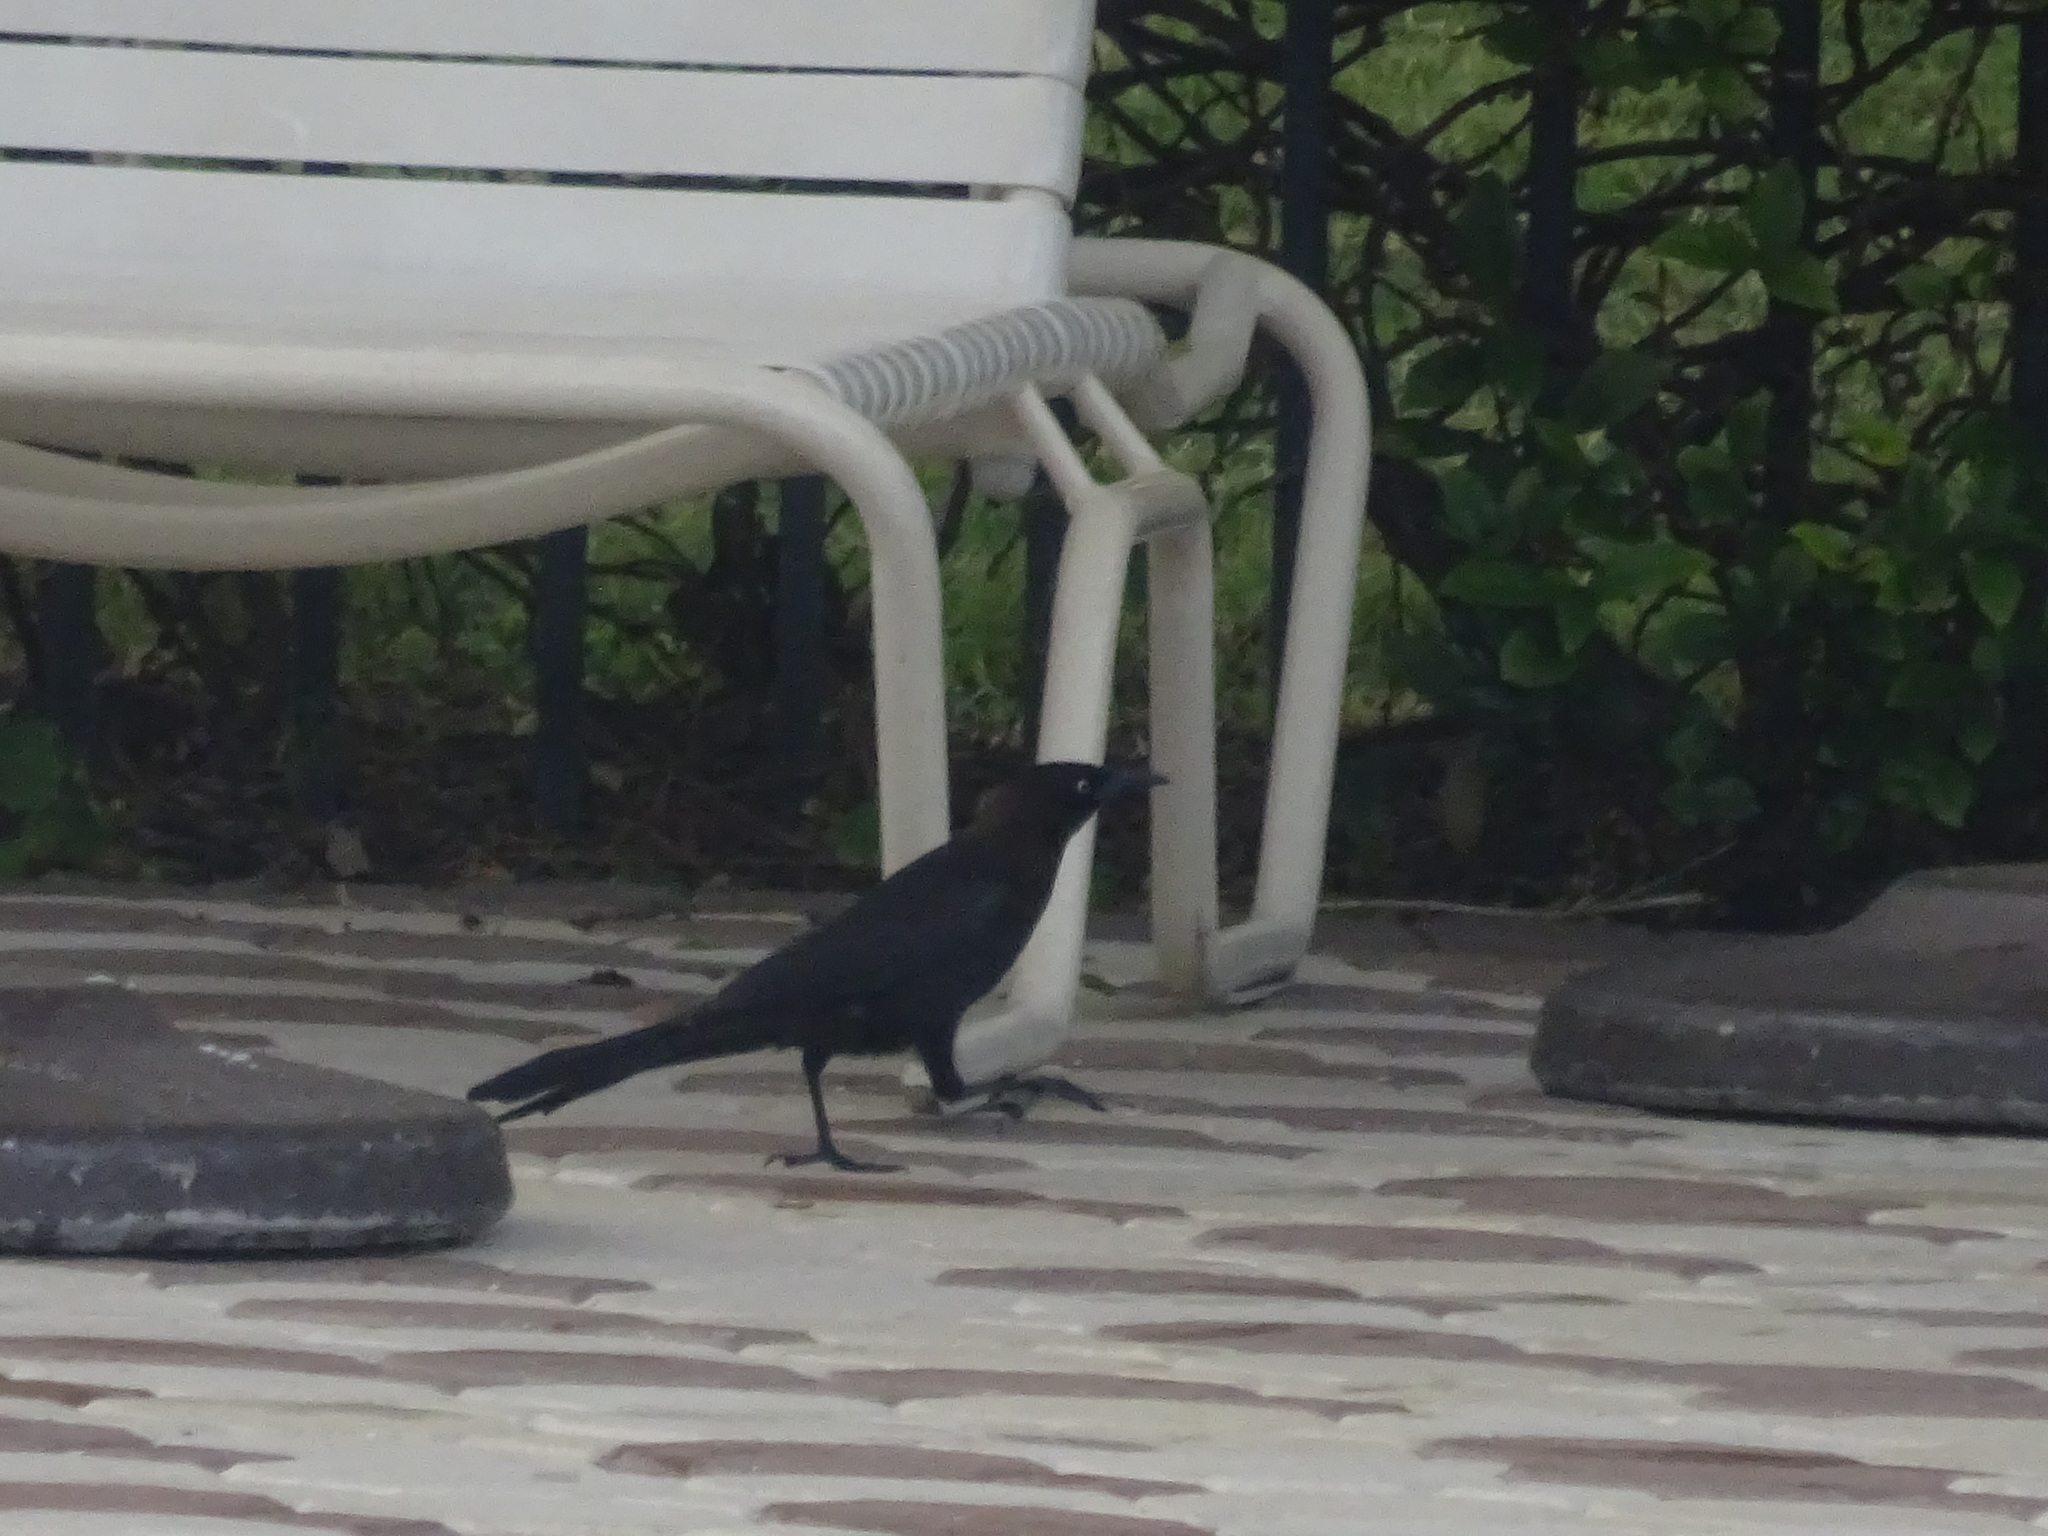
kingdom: Animalia
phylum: Chordata
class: Aves
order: Passeriformes
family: Icteridae
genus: Quiscalus
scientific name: Quiscalus quiscula
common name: Common grackle
